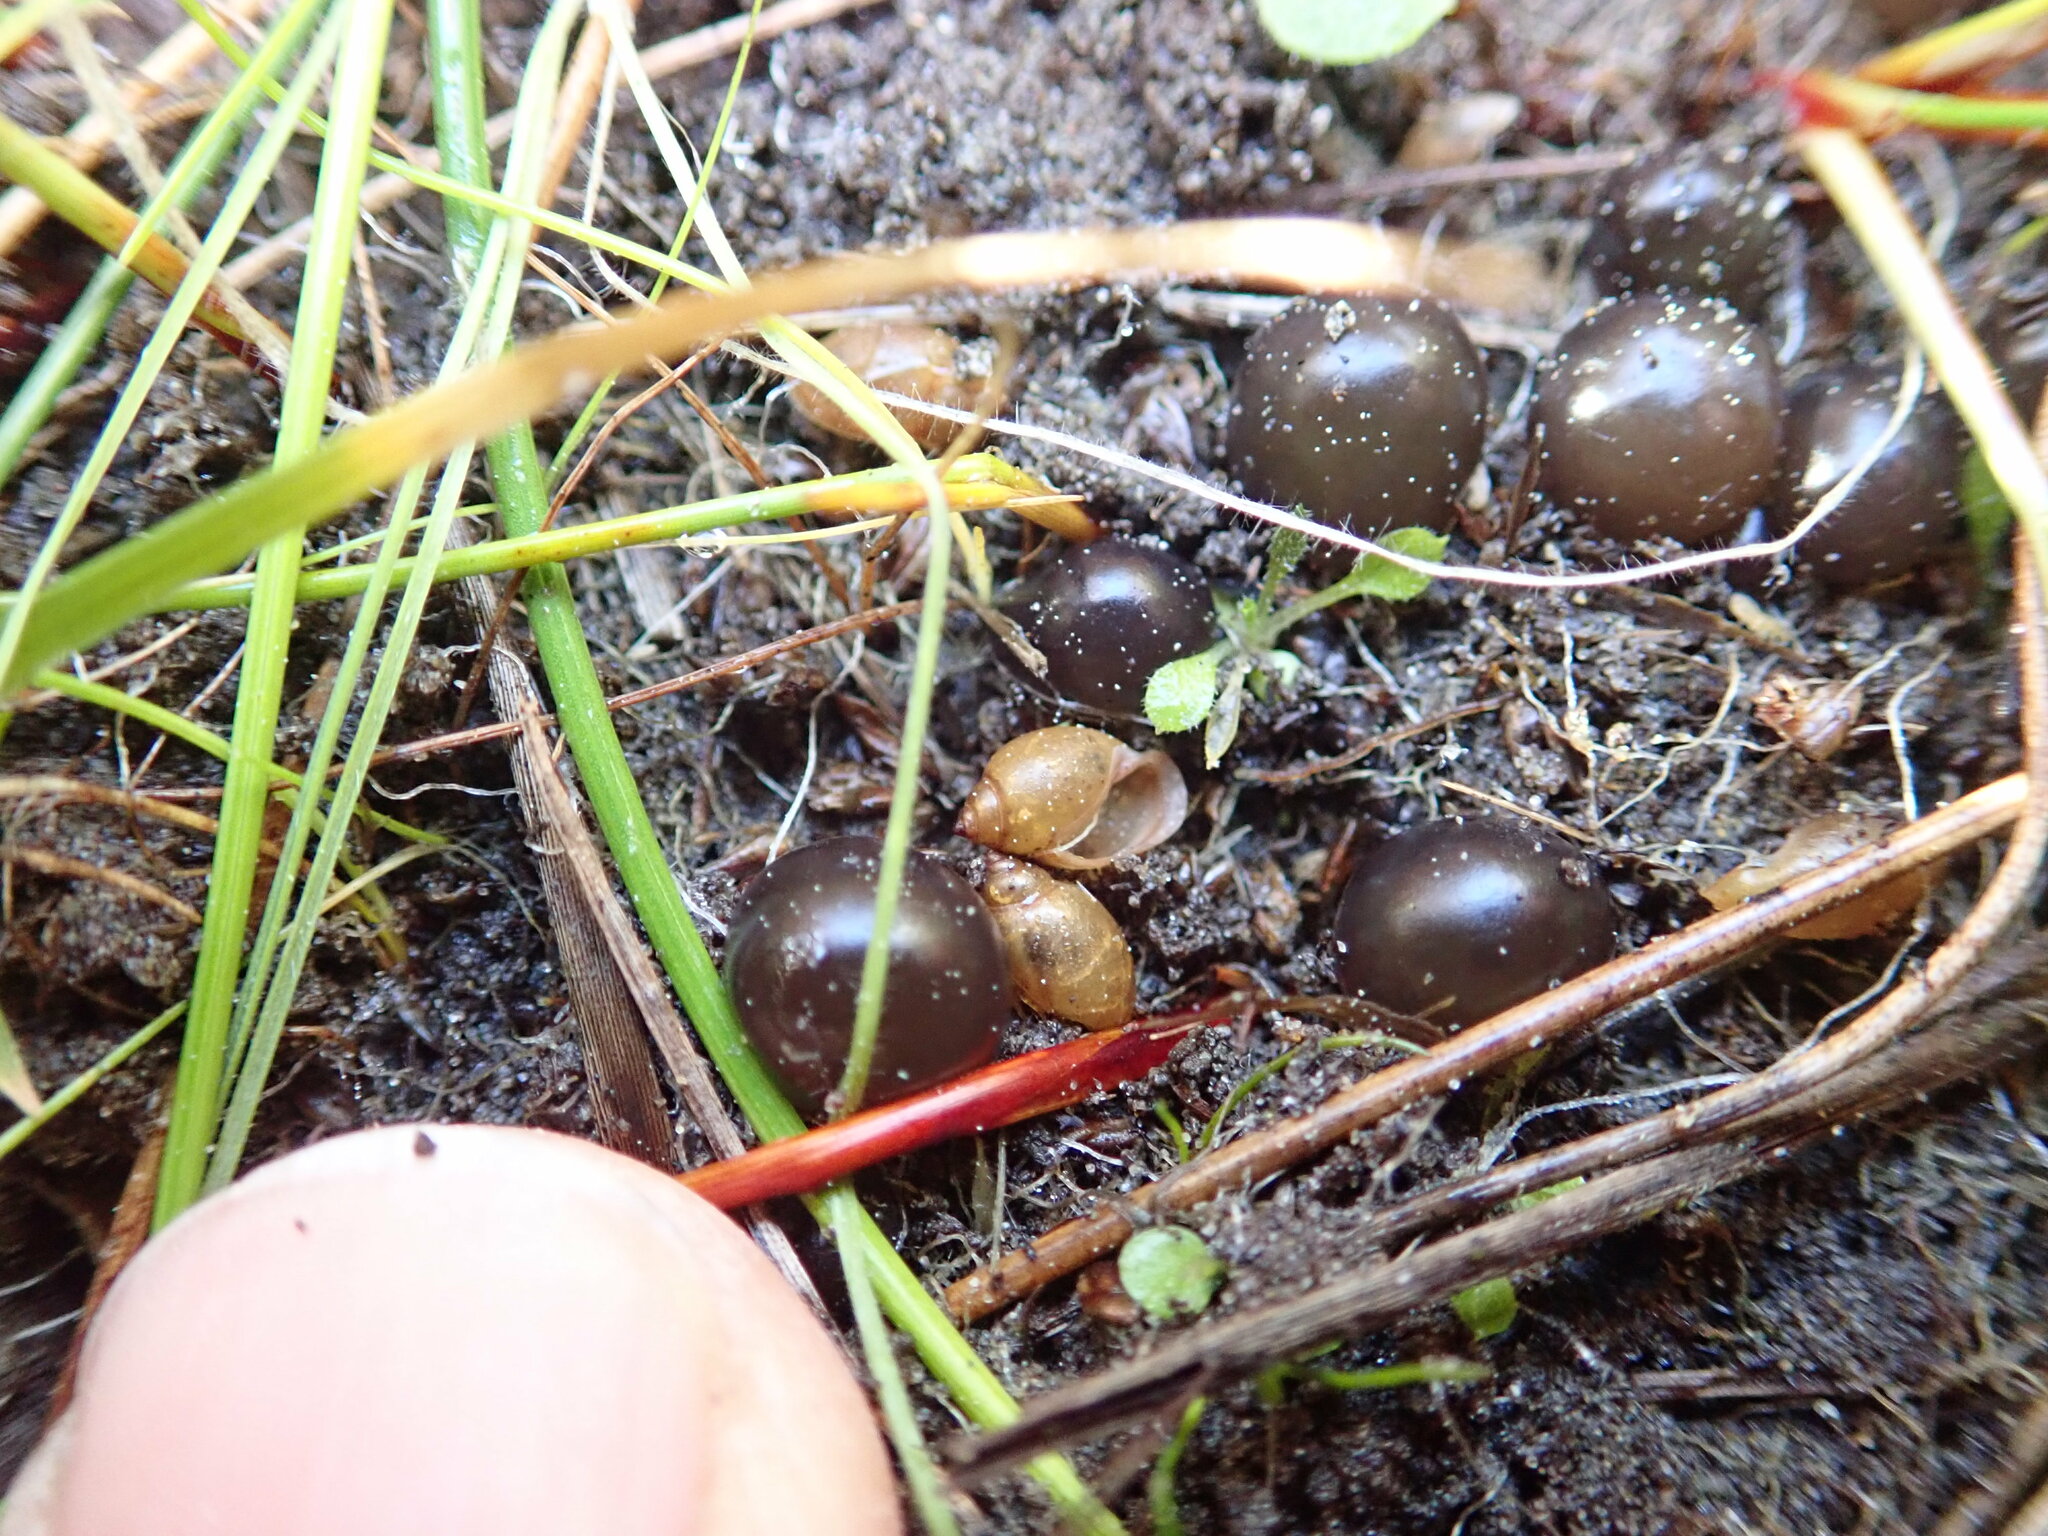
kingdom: Animalia
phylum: Mollusca
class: Gastropoda
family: Physidae
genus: Physella
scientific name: Physella acuta
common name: European physa
